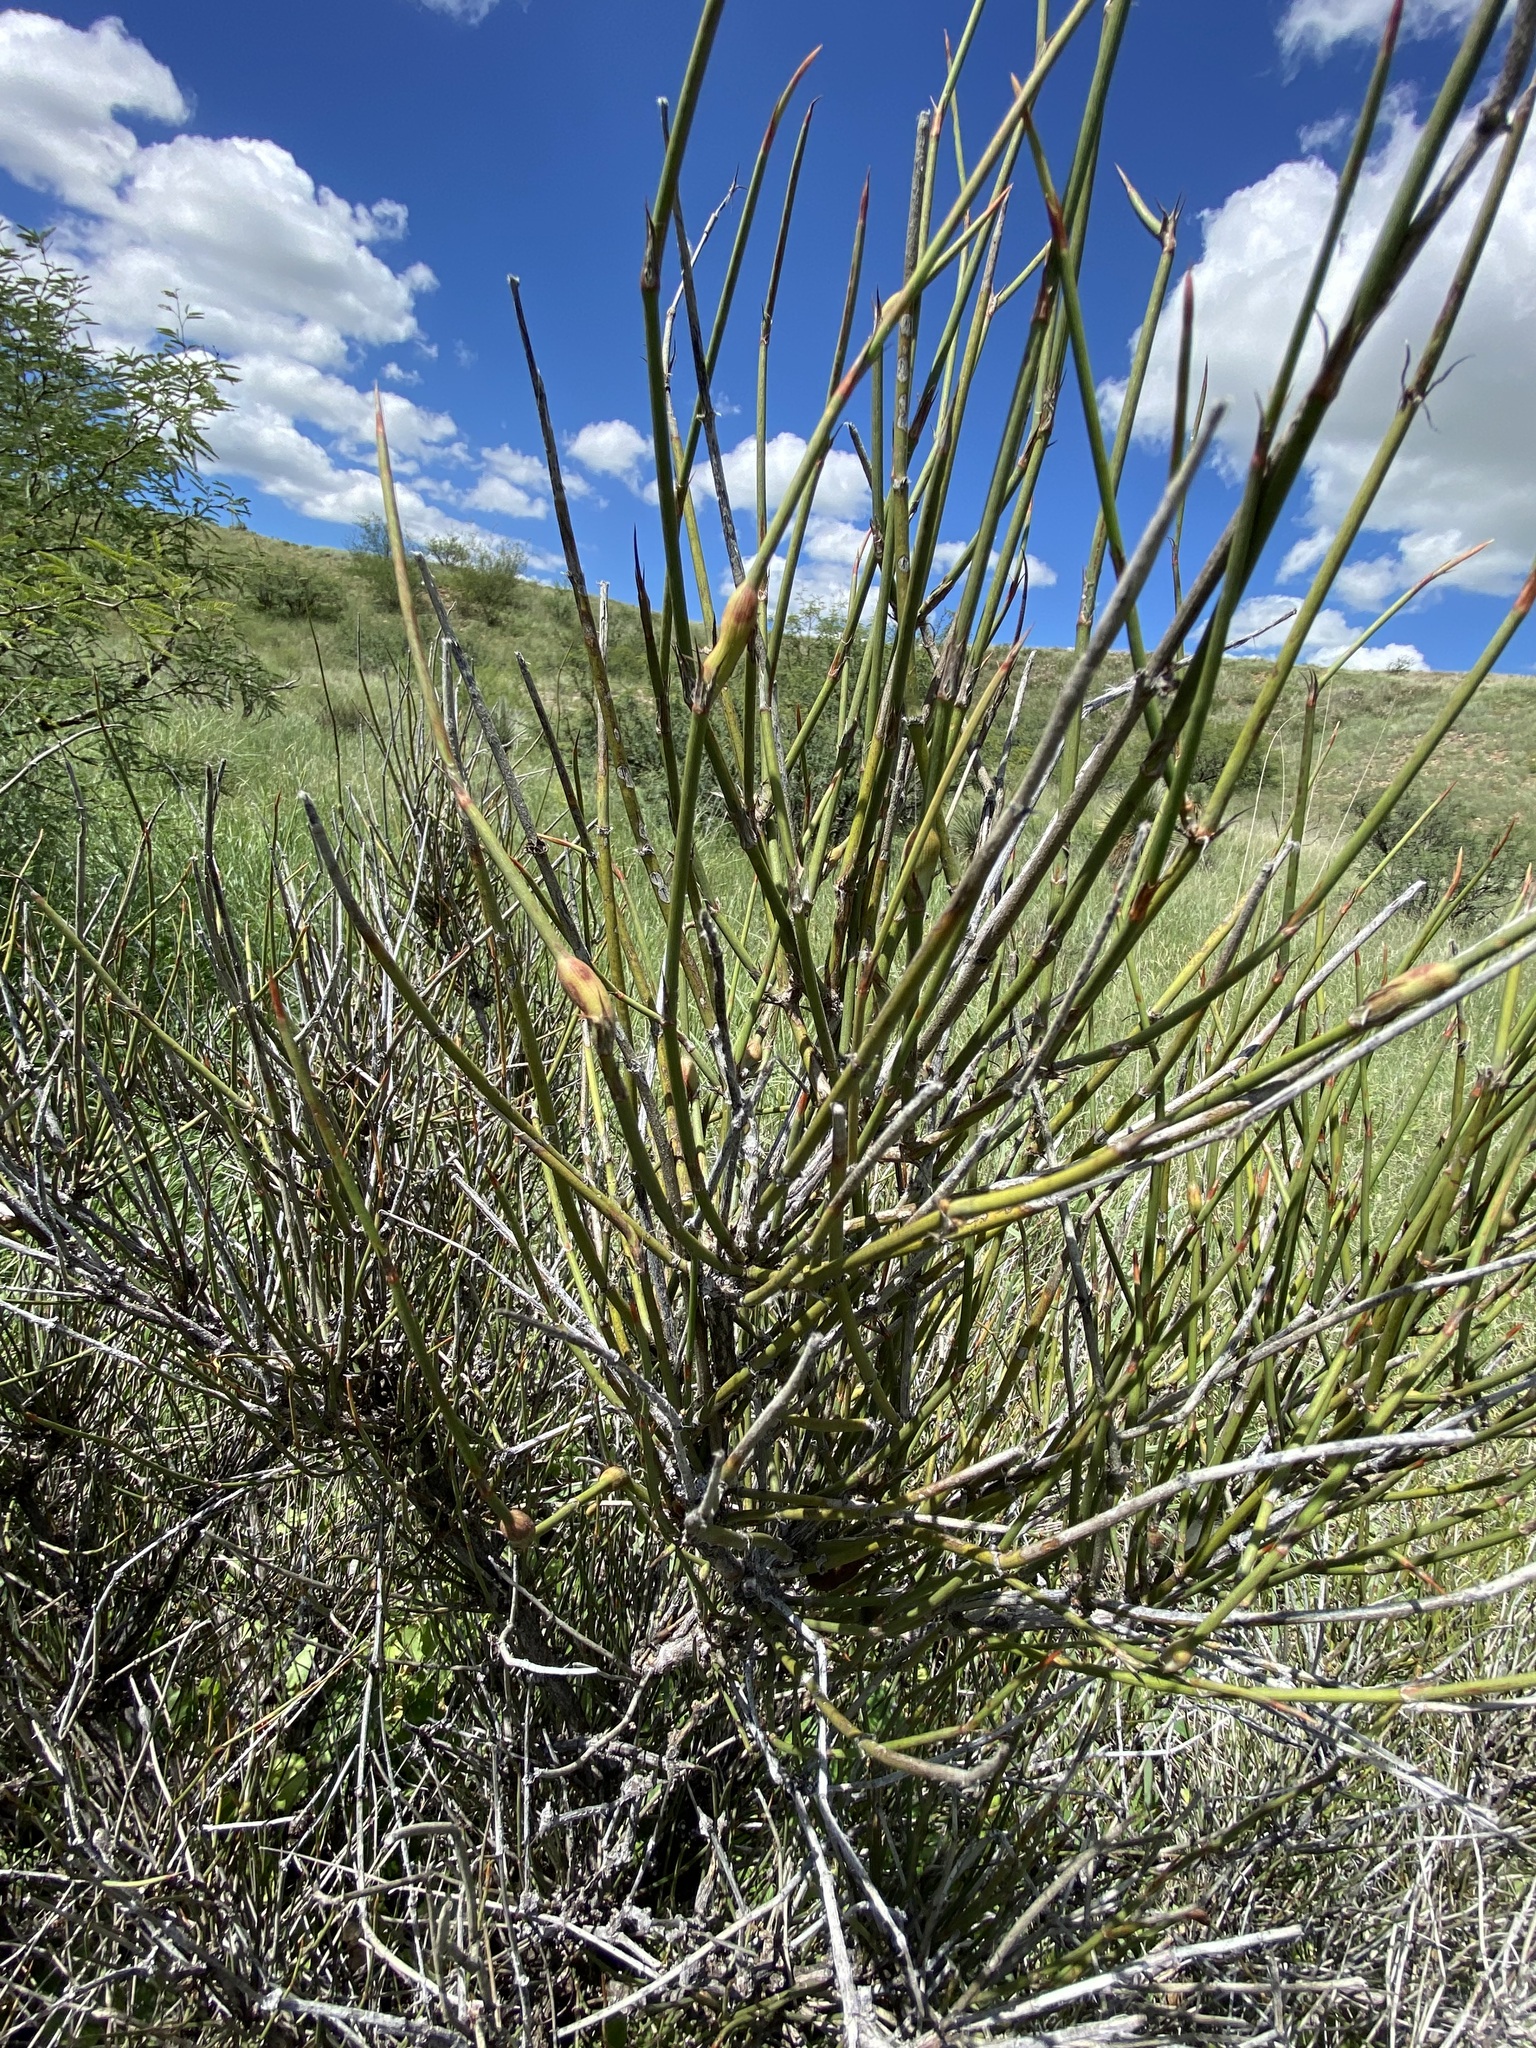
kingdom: Plantae
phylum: Tracheophyta
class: Gnetopsida
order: Ephedrales
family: Ephedraceae
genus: Ephedra
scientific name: Ephedra trifurca
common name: Mexican-tea
